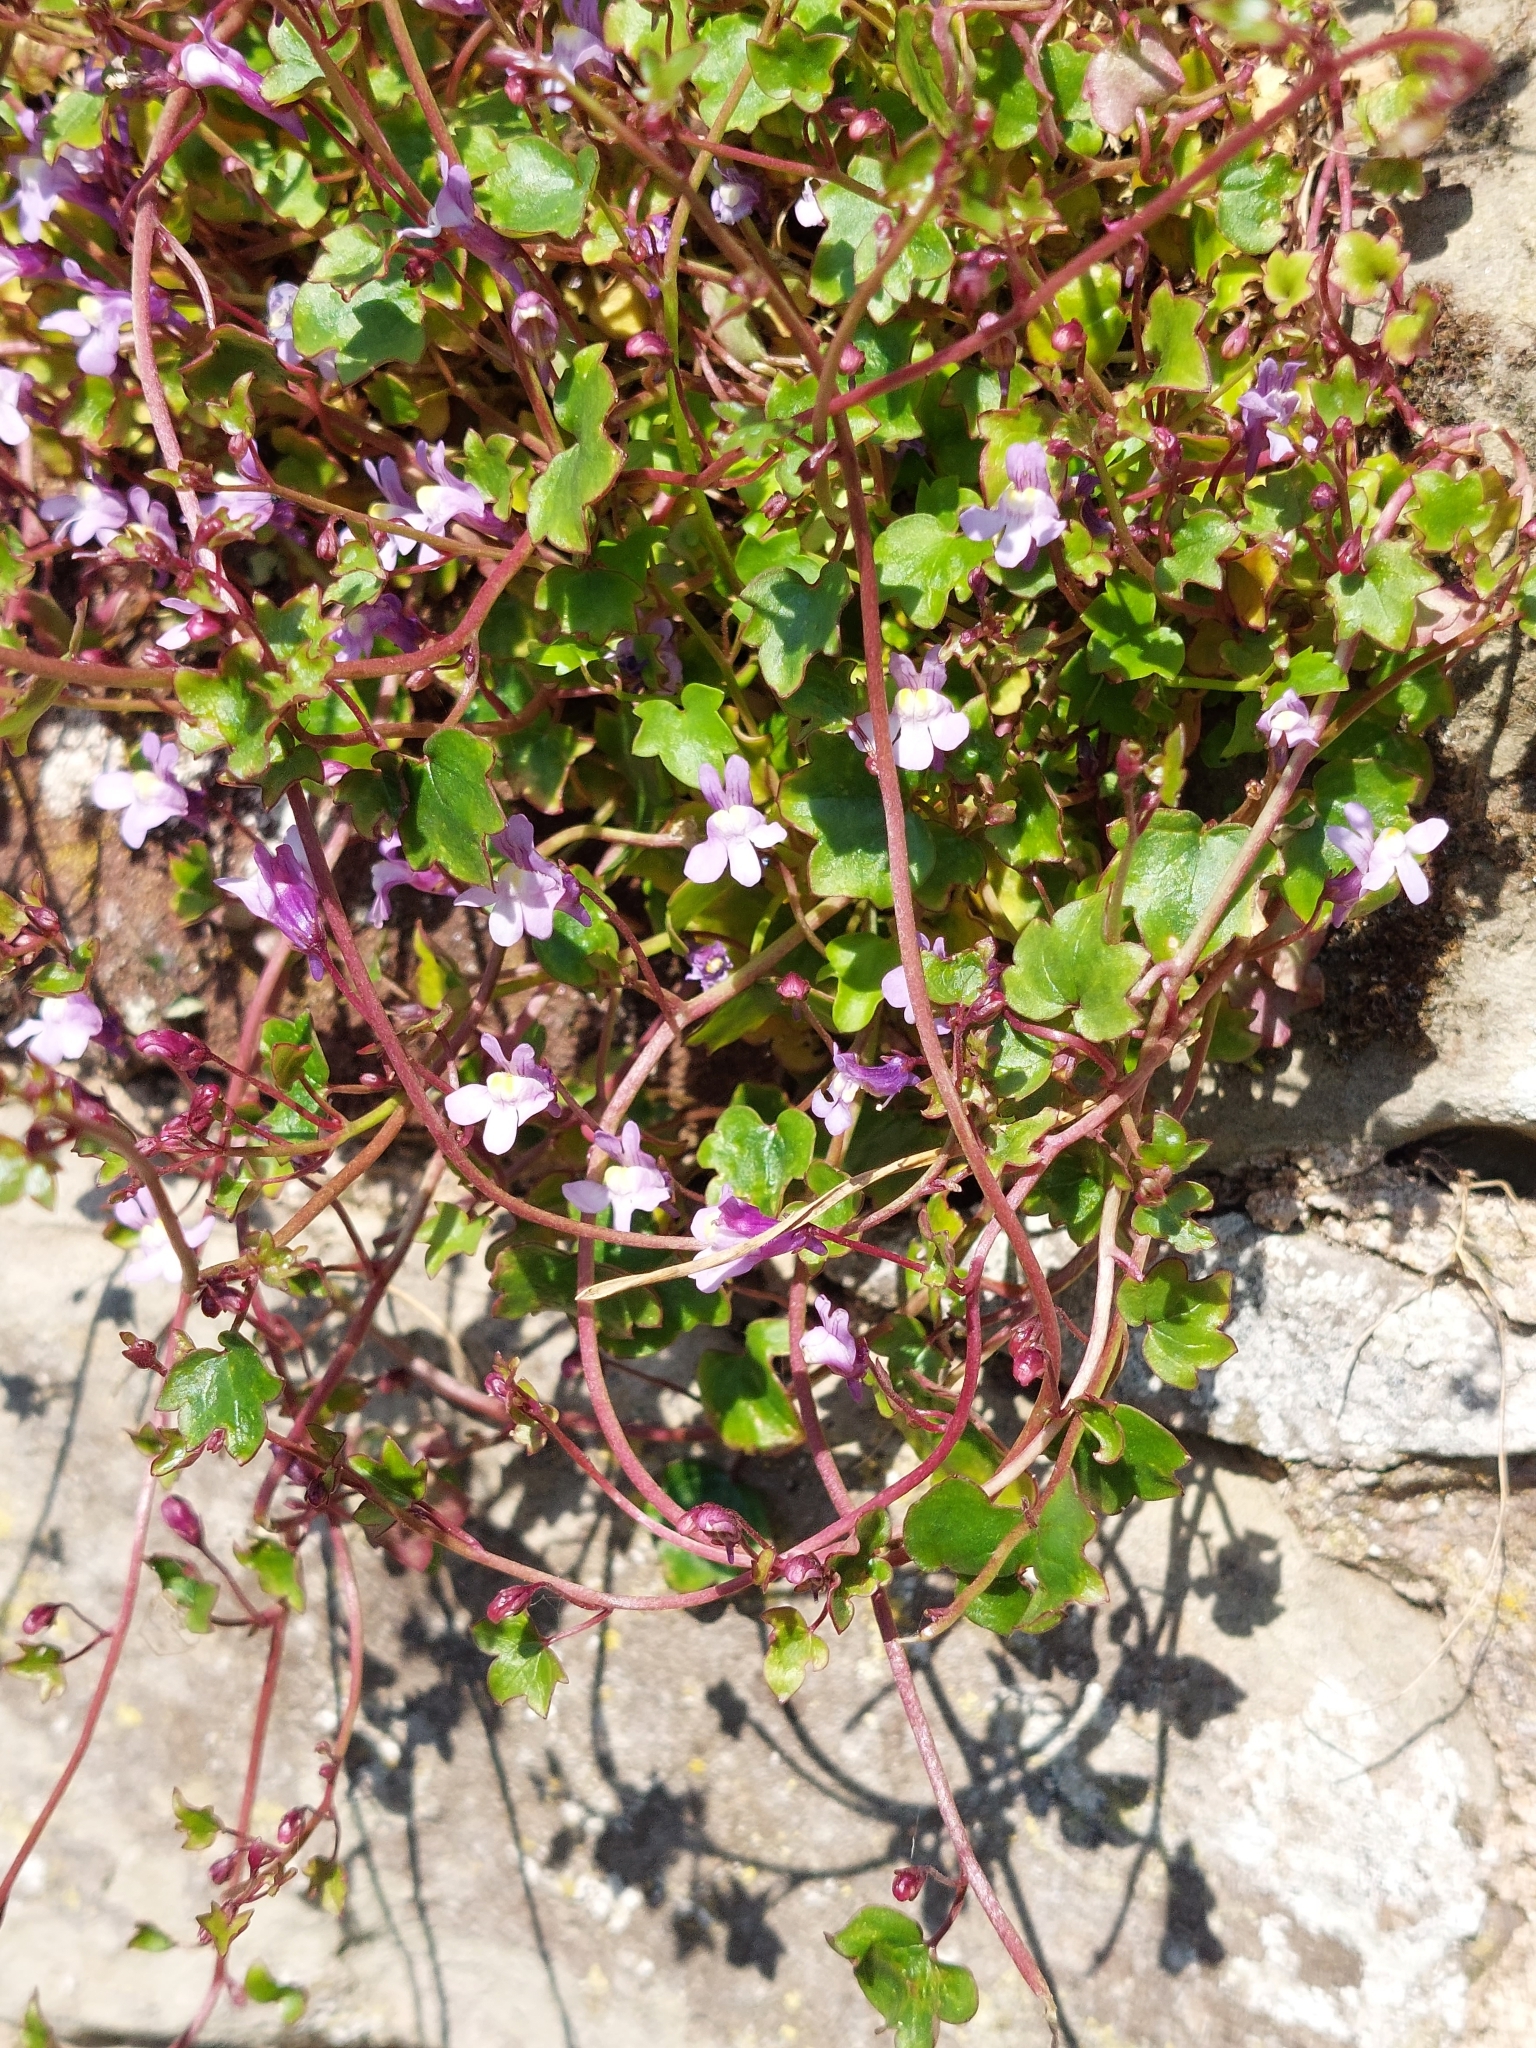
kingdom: Plantae
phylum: Tracheophyta
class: Magnoliopsida
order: Lamiales
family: Plantaginaceae
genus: Cymbalaria
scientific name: Cymbalaria muralis
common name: Ivy-leaved toadflax
